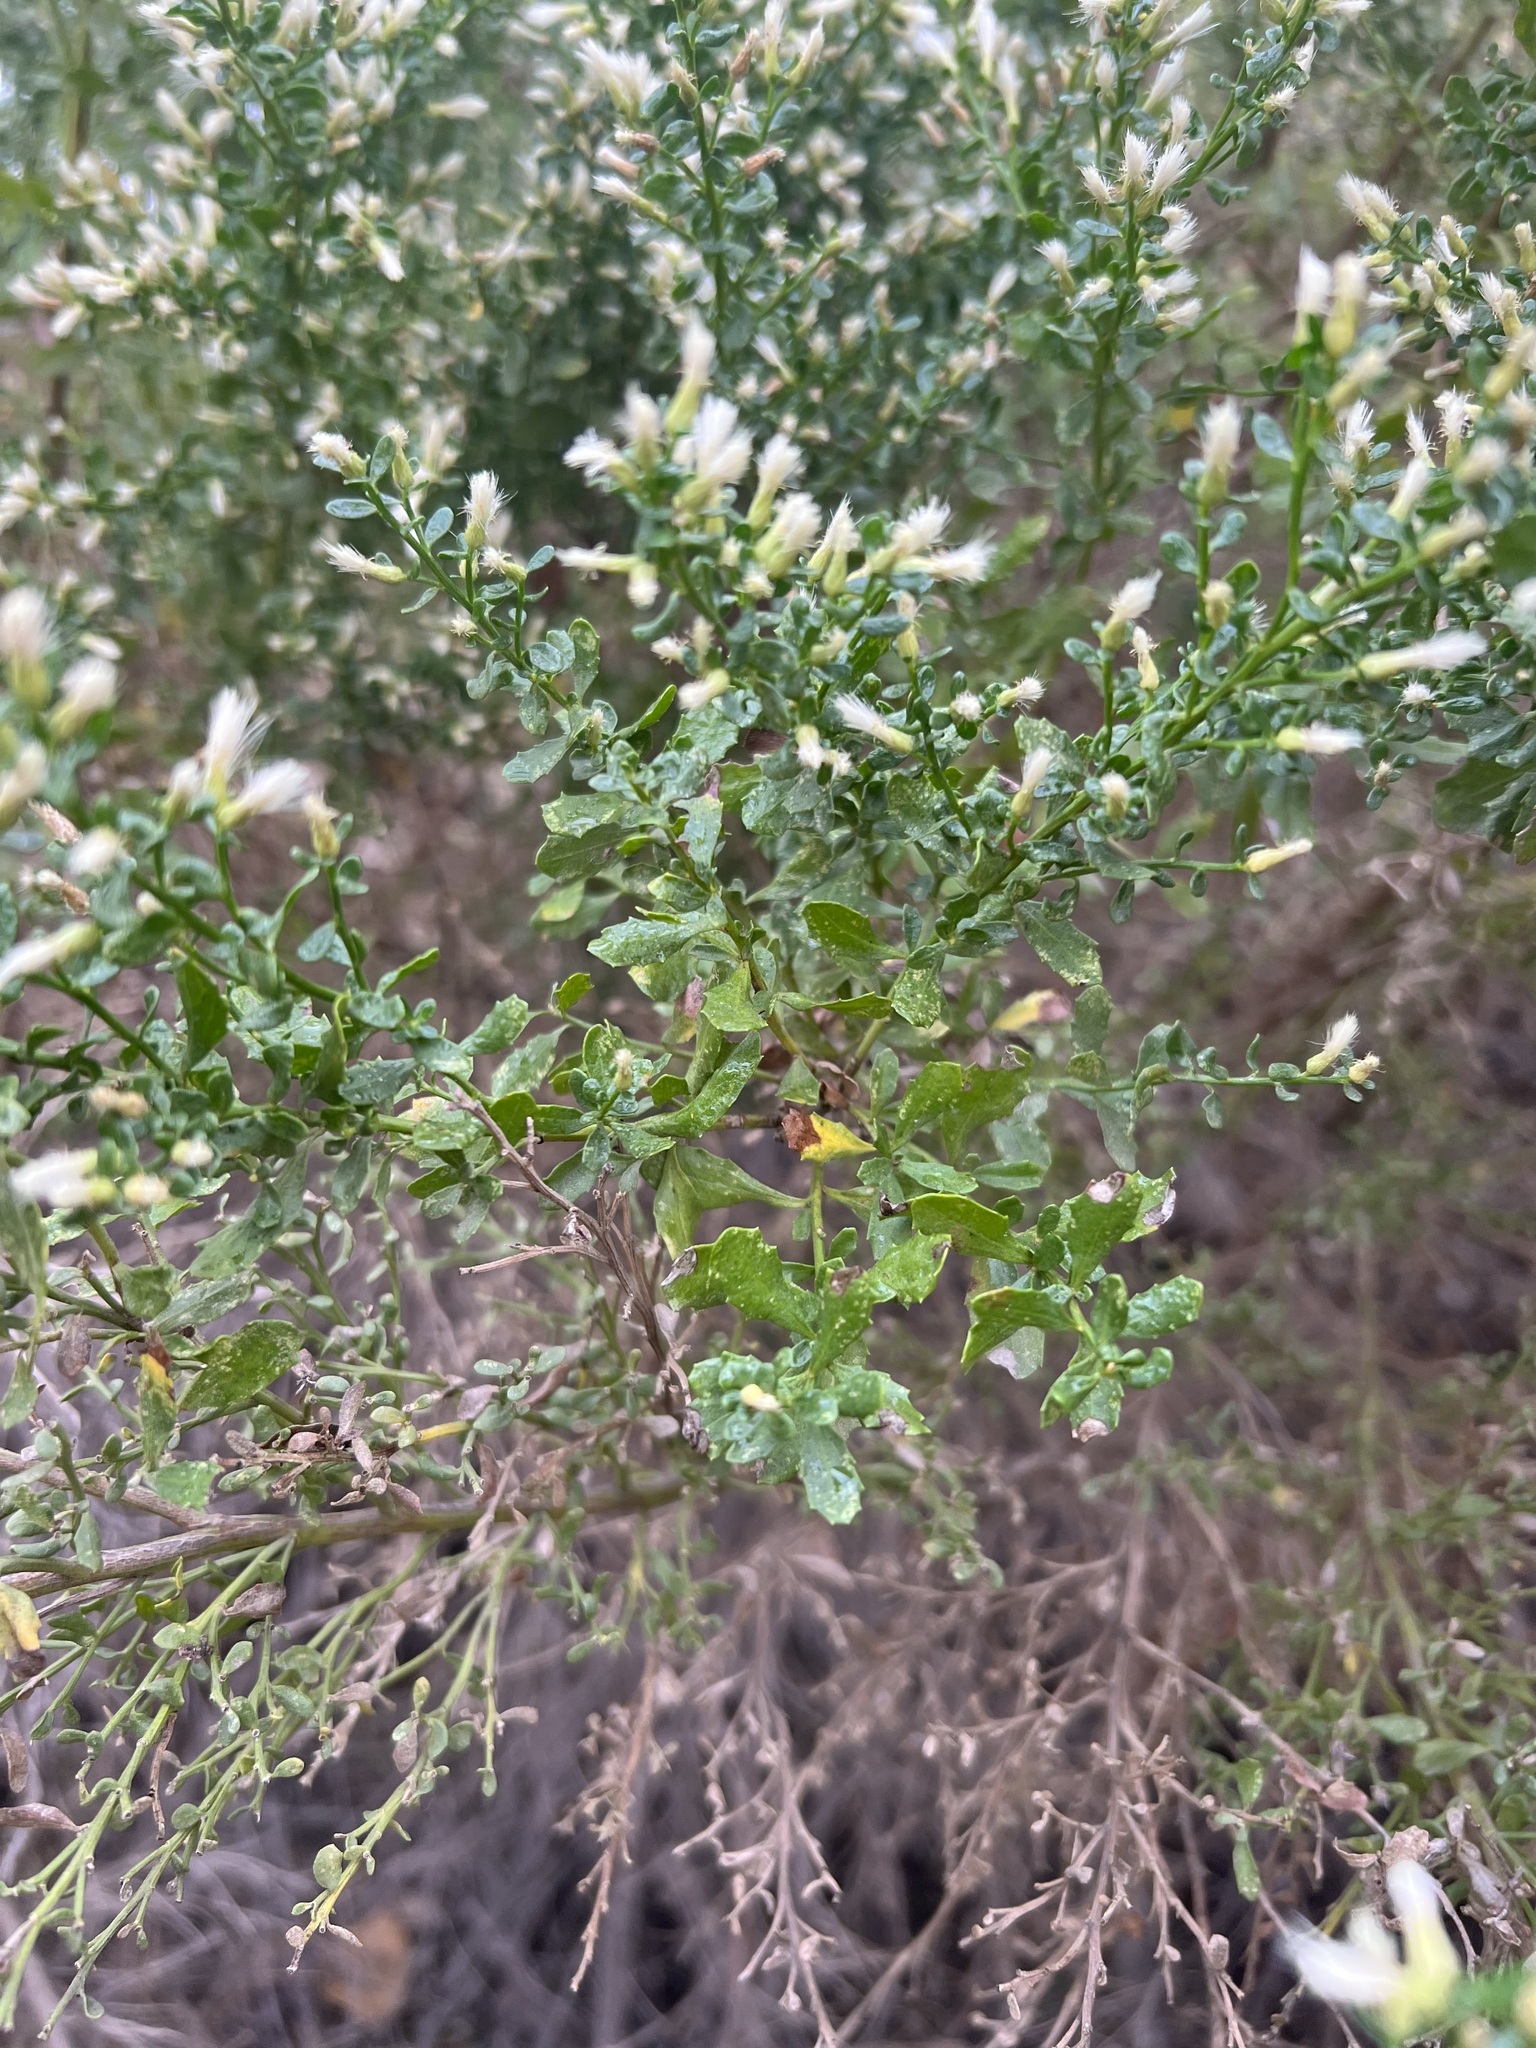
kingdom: Plantae
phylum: Tracheophyta
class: Magnoliopsida
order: Asterales
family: Asteraceae
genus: Baccharis
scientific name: Baccharis pilularis
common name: Coyotebrush
